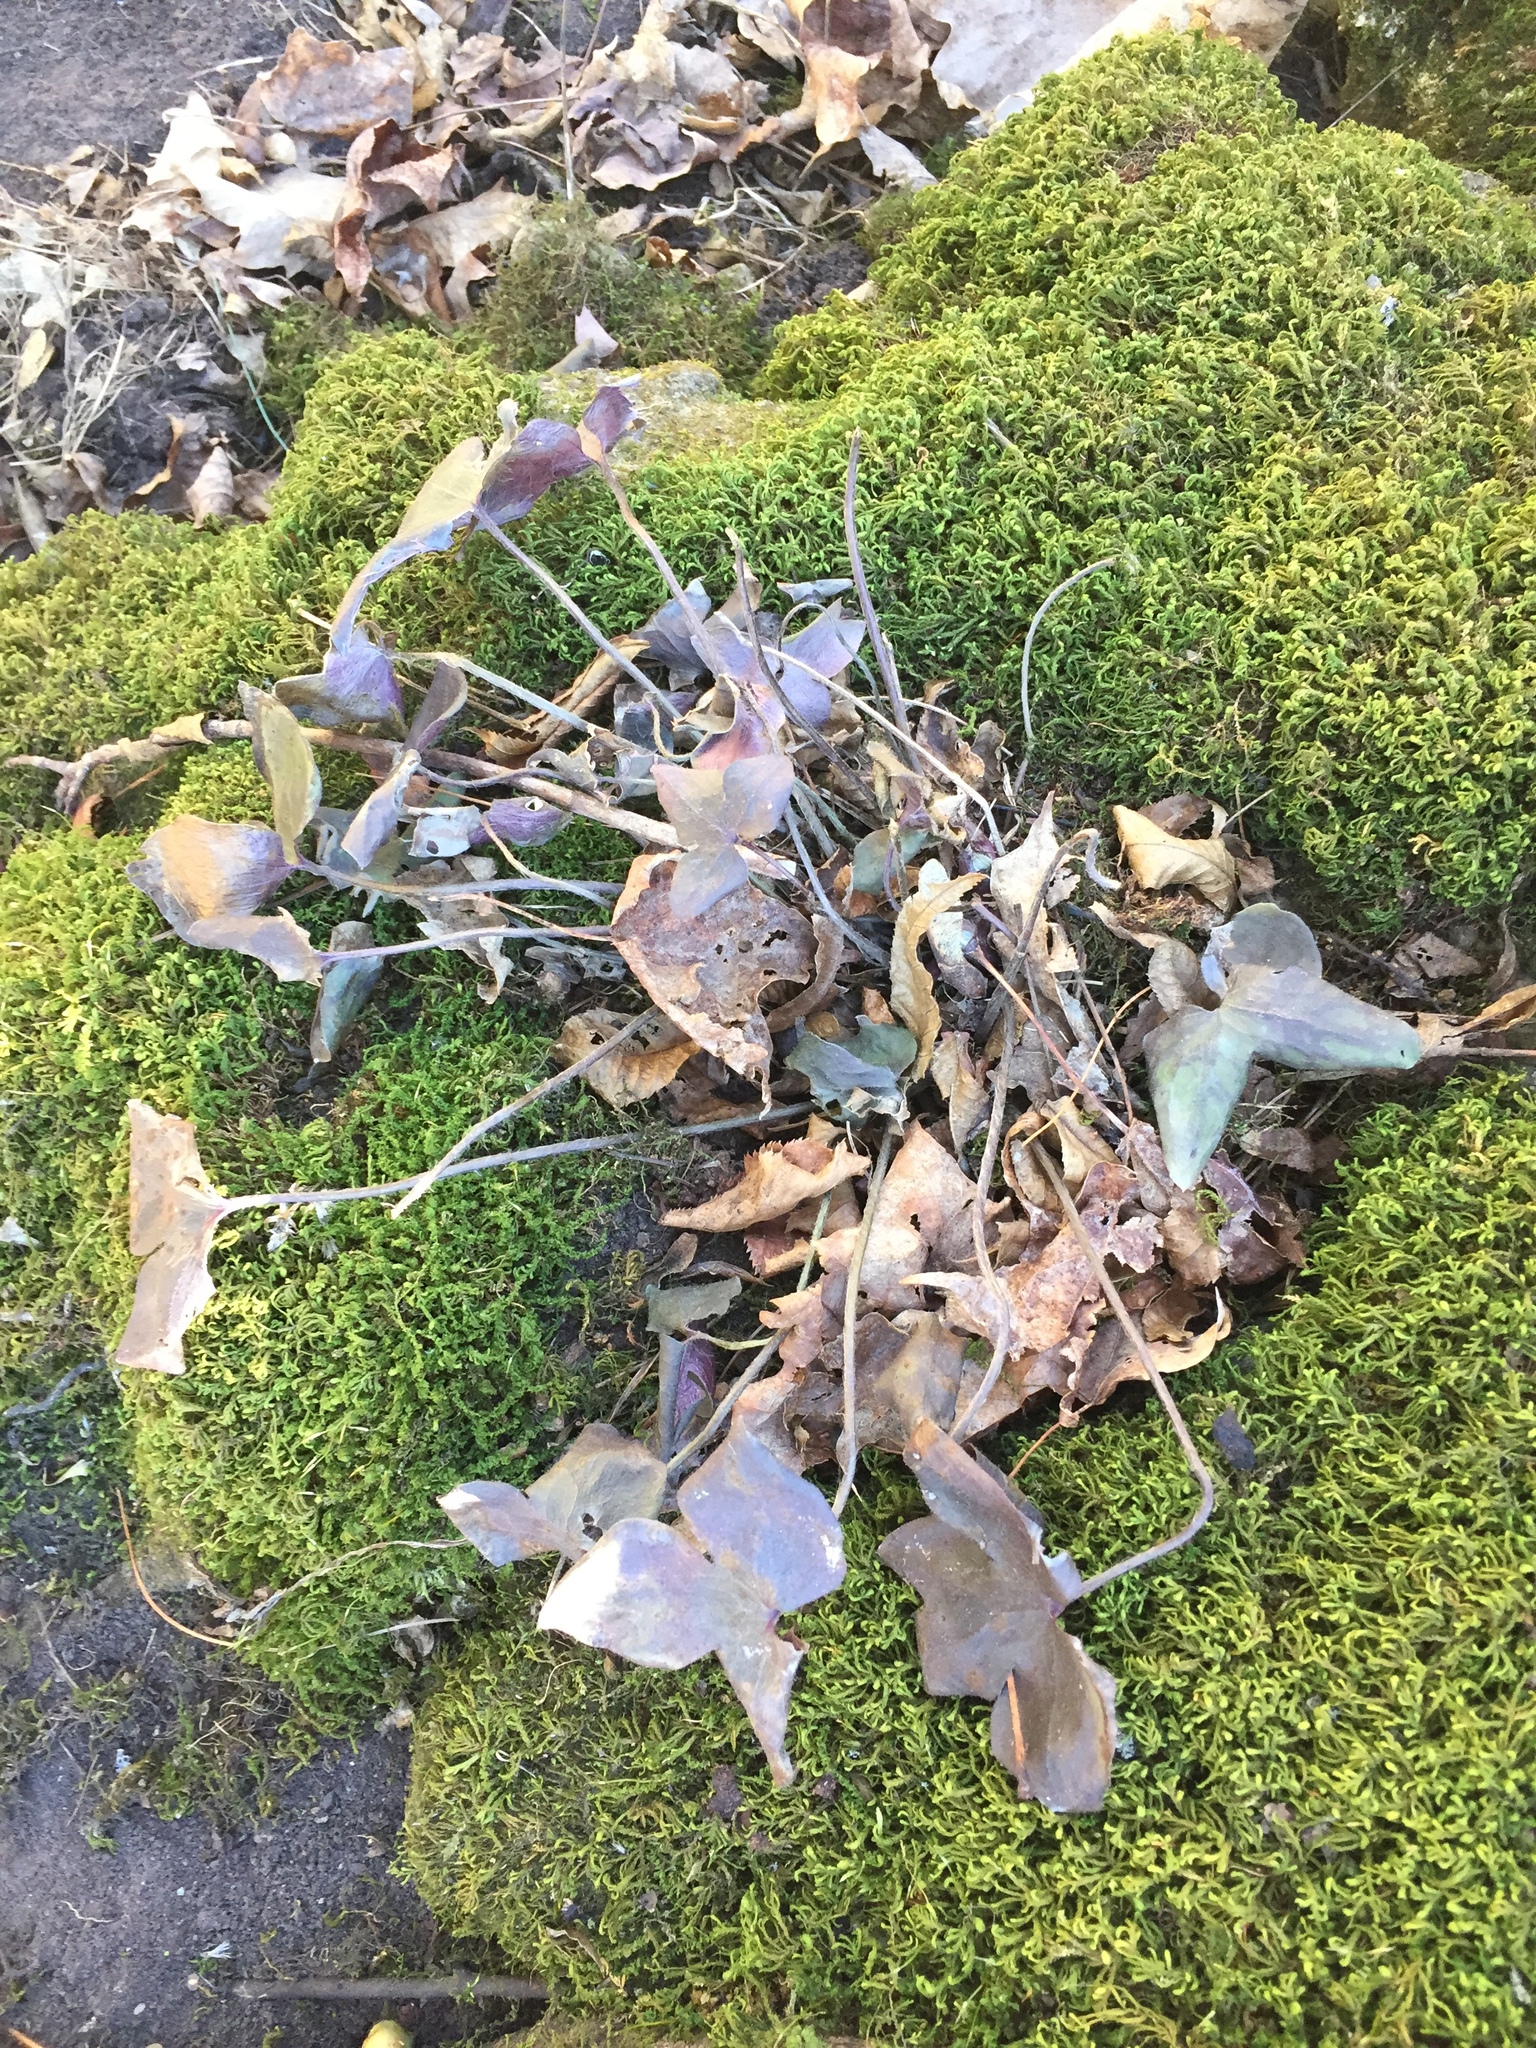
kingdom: Plantae
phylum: Tracheophyta
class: Magnoliopsida
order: Ranunculales
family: Ranunculaceae
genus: Hepatica
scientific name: Hepatica acutiloba
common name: Sharp-lobed hepatica
